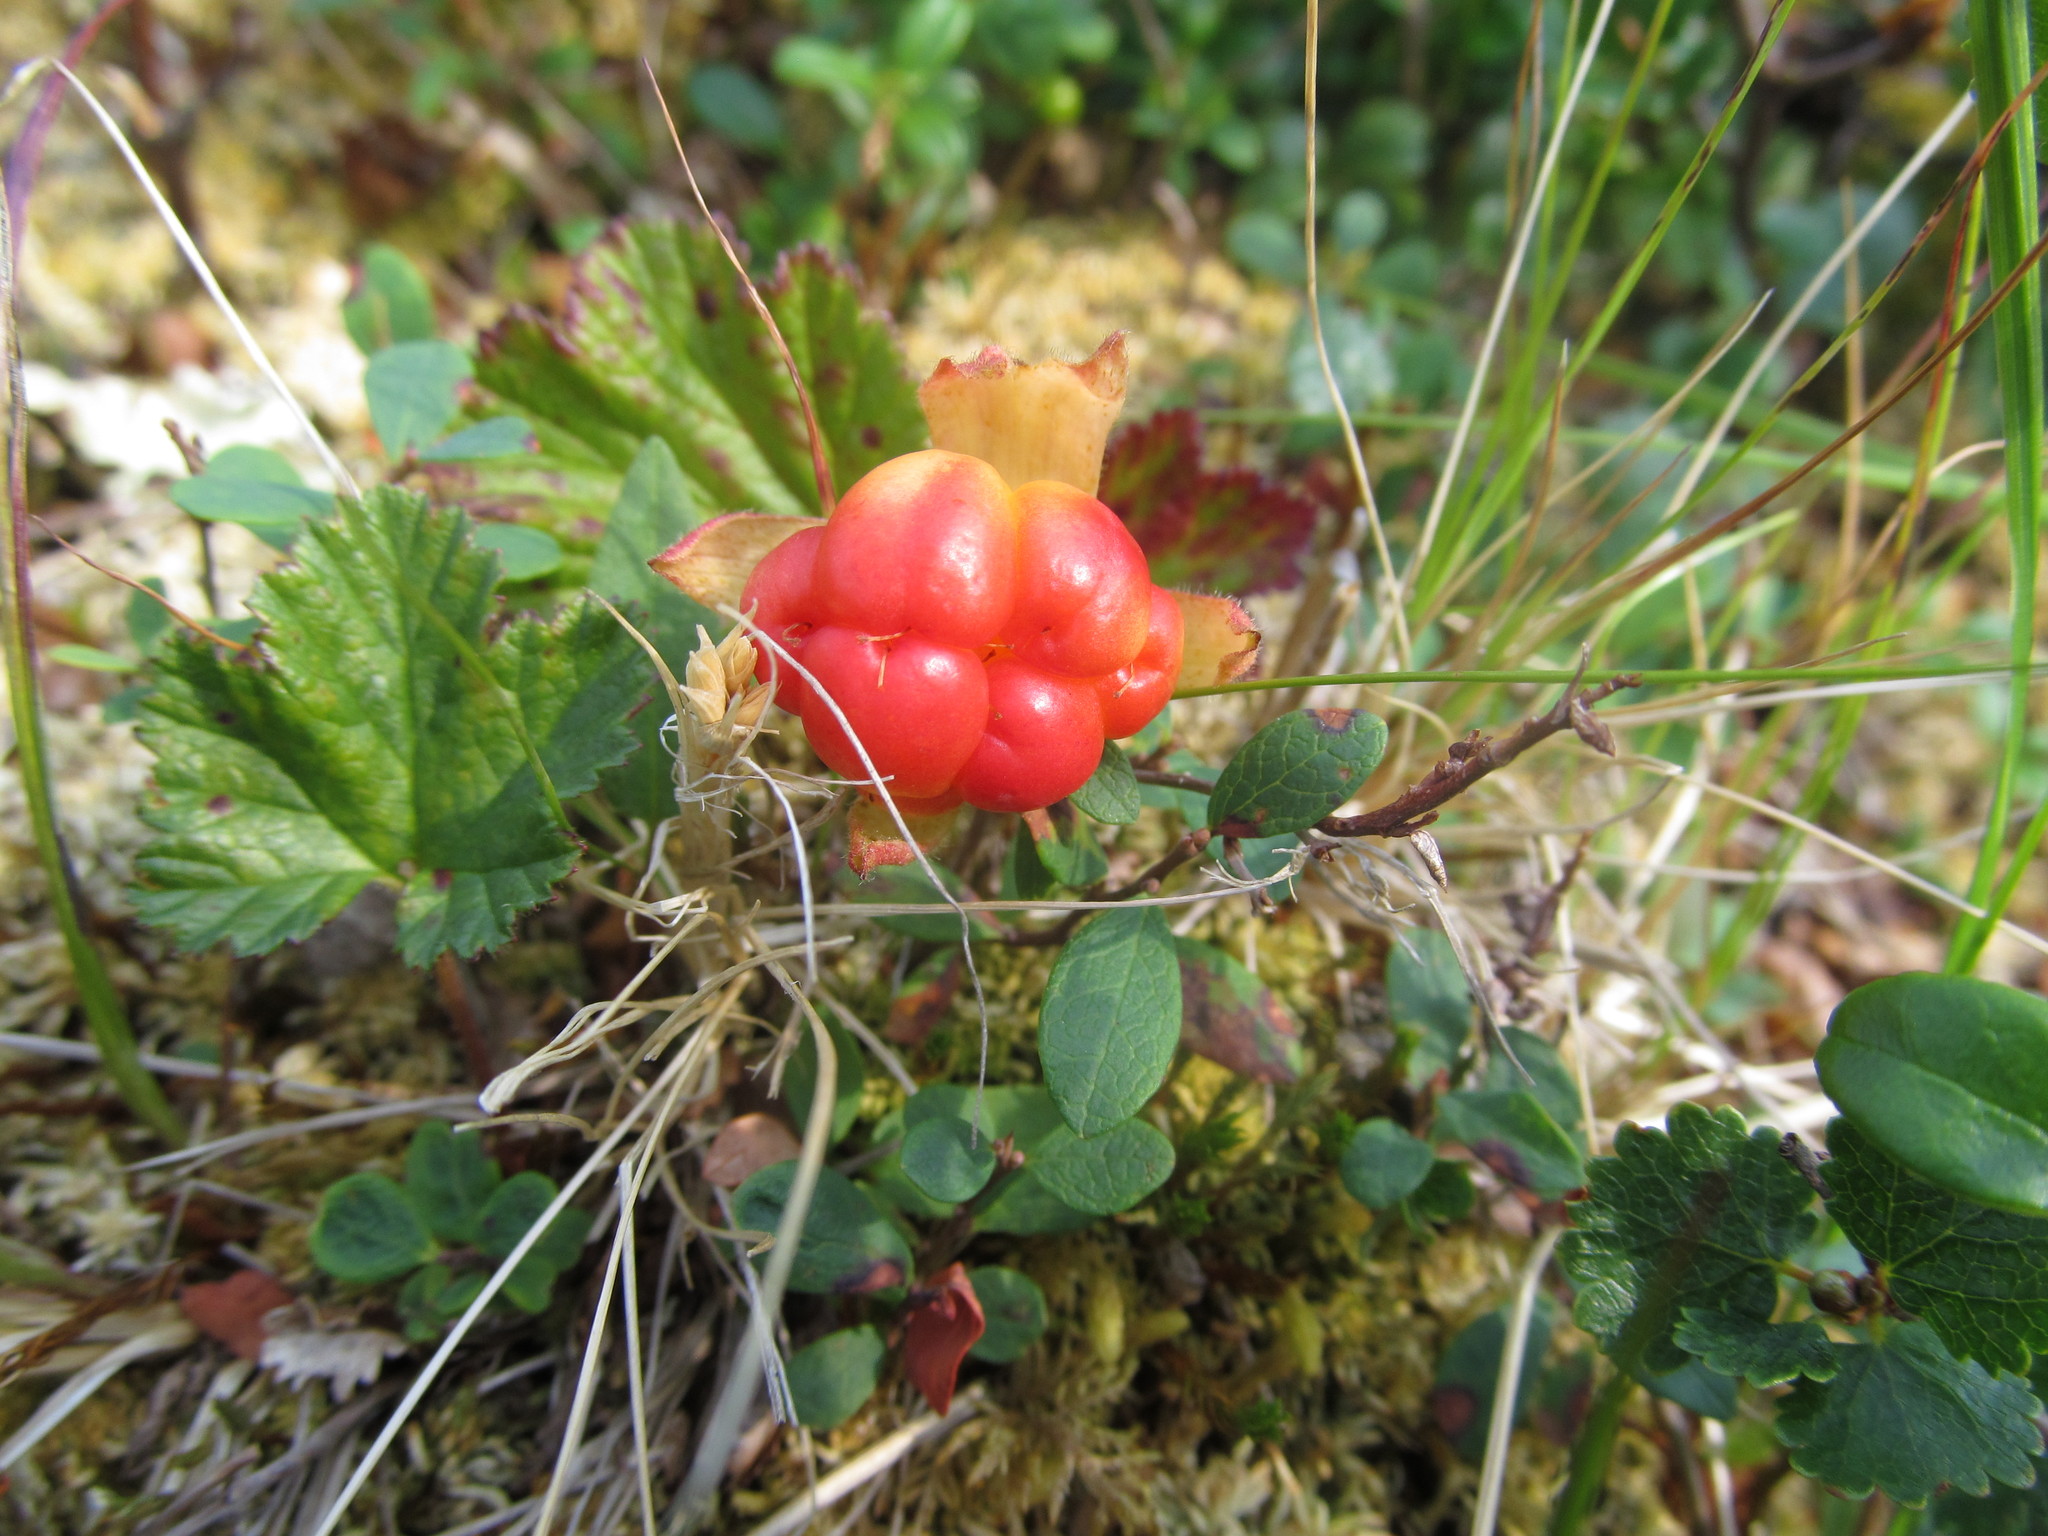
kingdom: Plantae
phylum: Tracheophyta
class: Magnoliopsida
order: Rosales
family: Rosaceae
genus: Rubus
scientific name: Rubus chamaemorus
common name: Cloudberry
